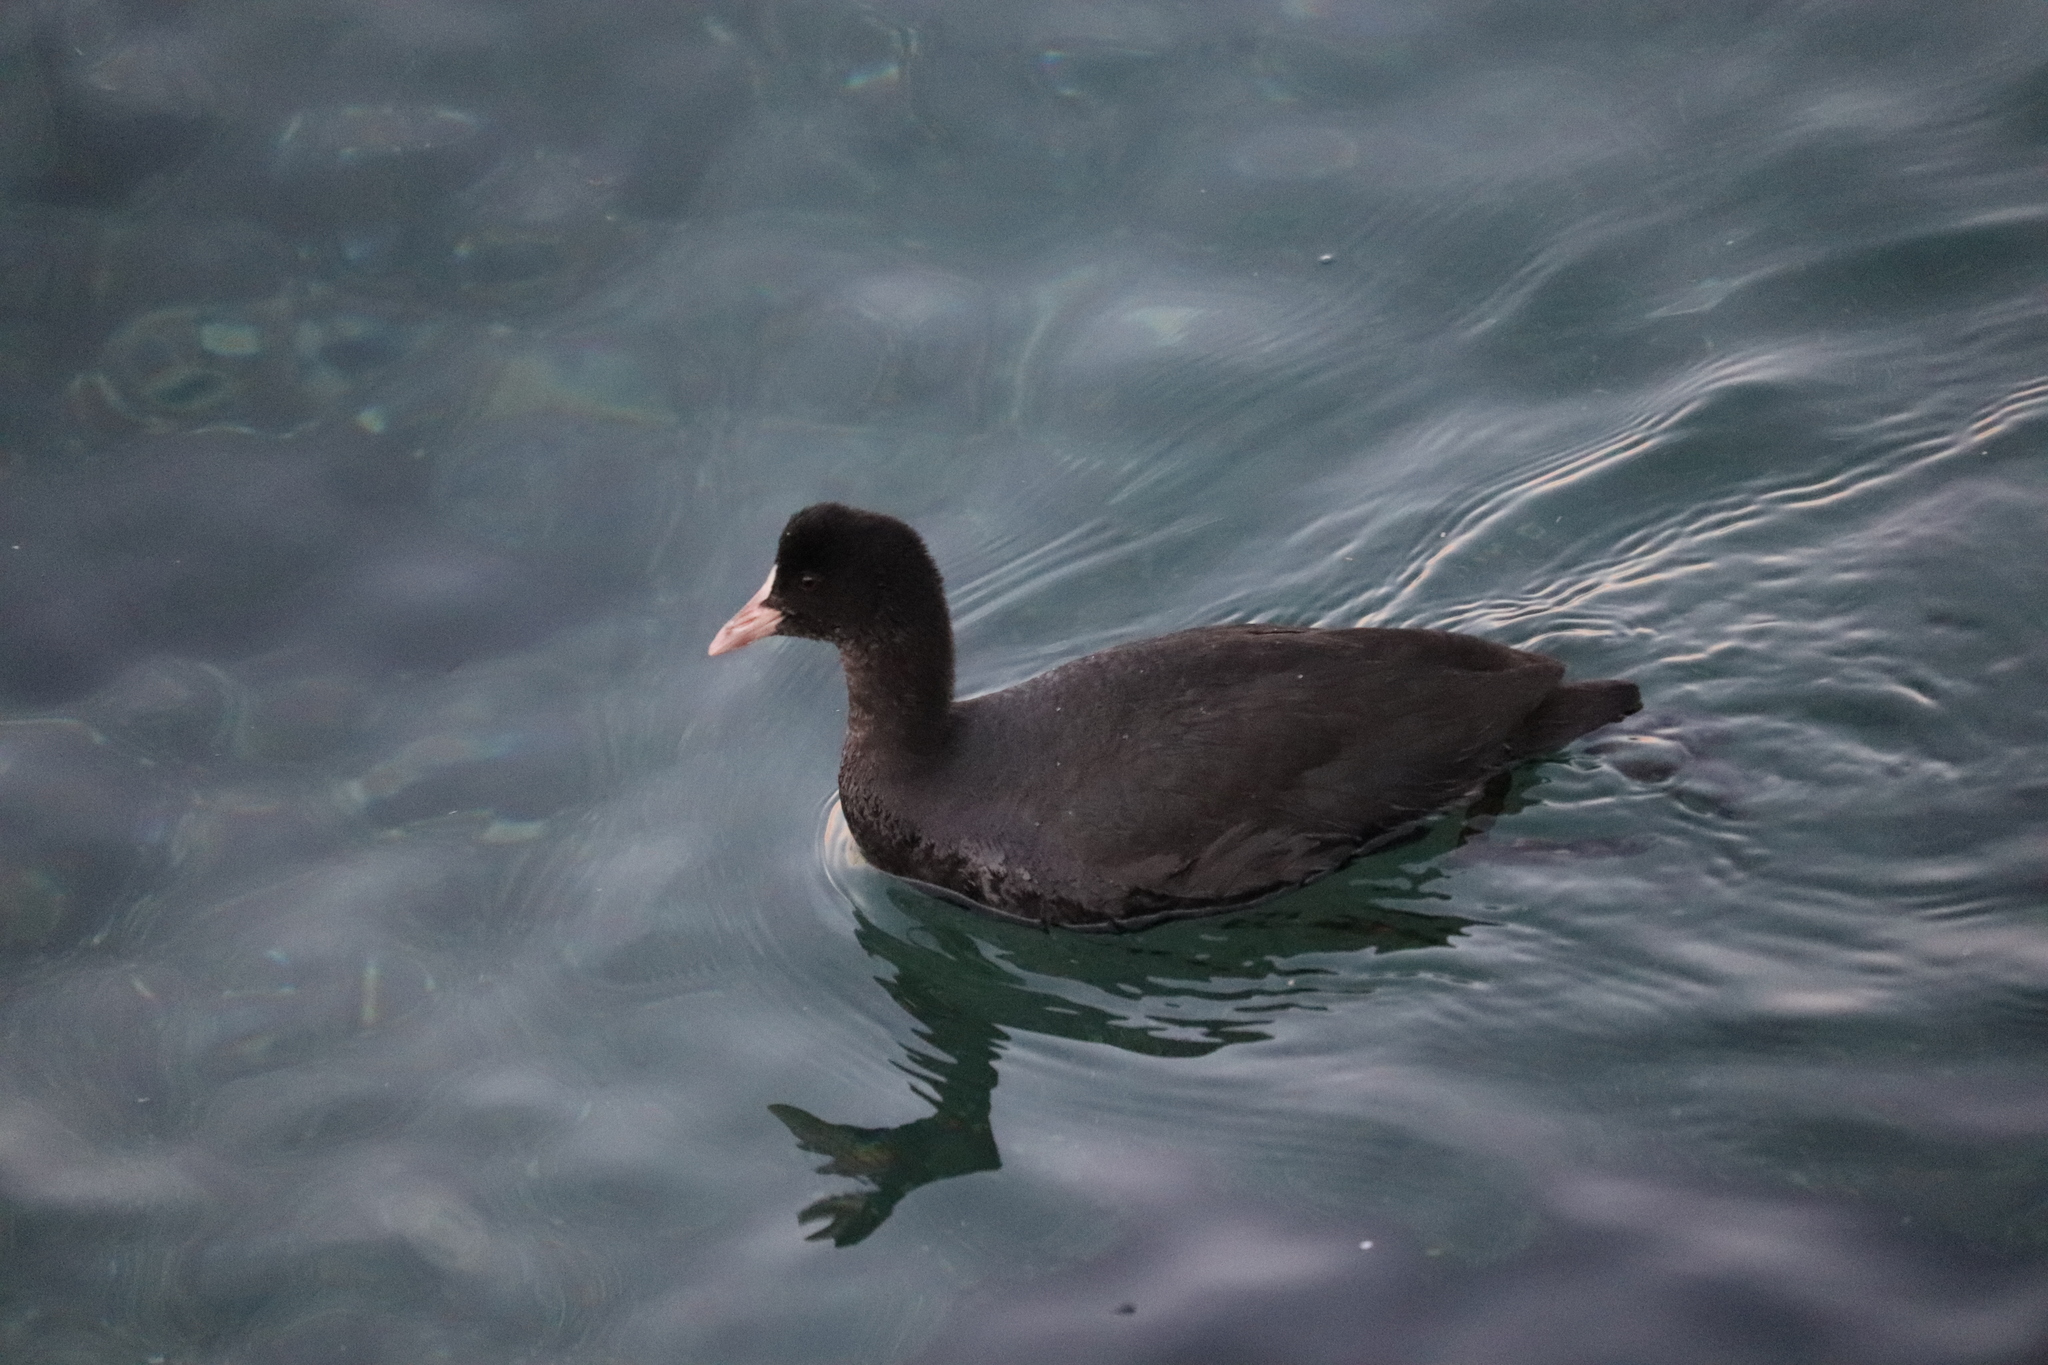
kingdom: Animalia
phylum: Chordata
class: Aves
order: Gruiformes
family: Rallidae
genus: Fulica
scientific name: Fulica atra
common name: Eurasian coot
